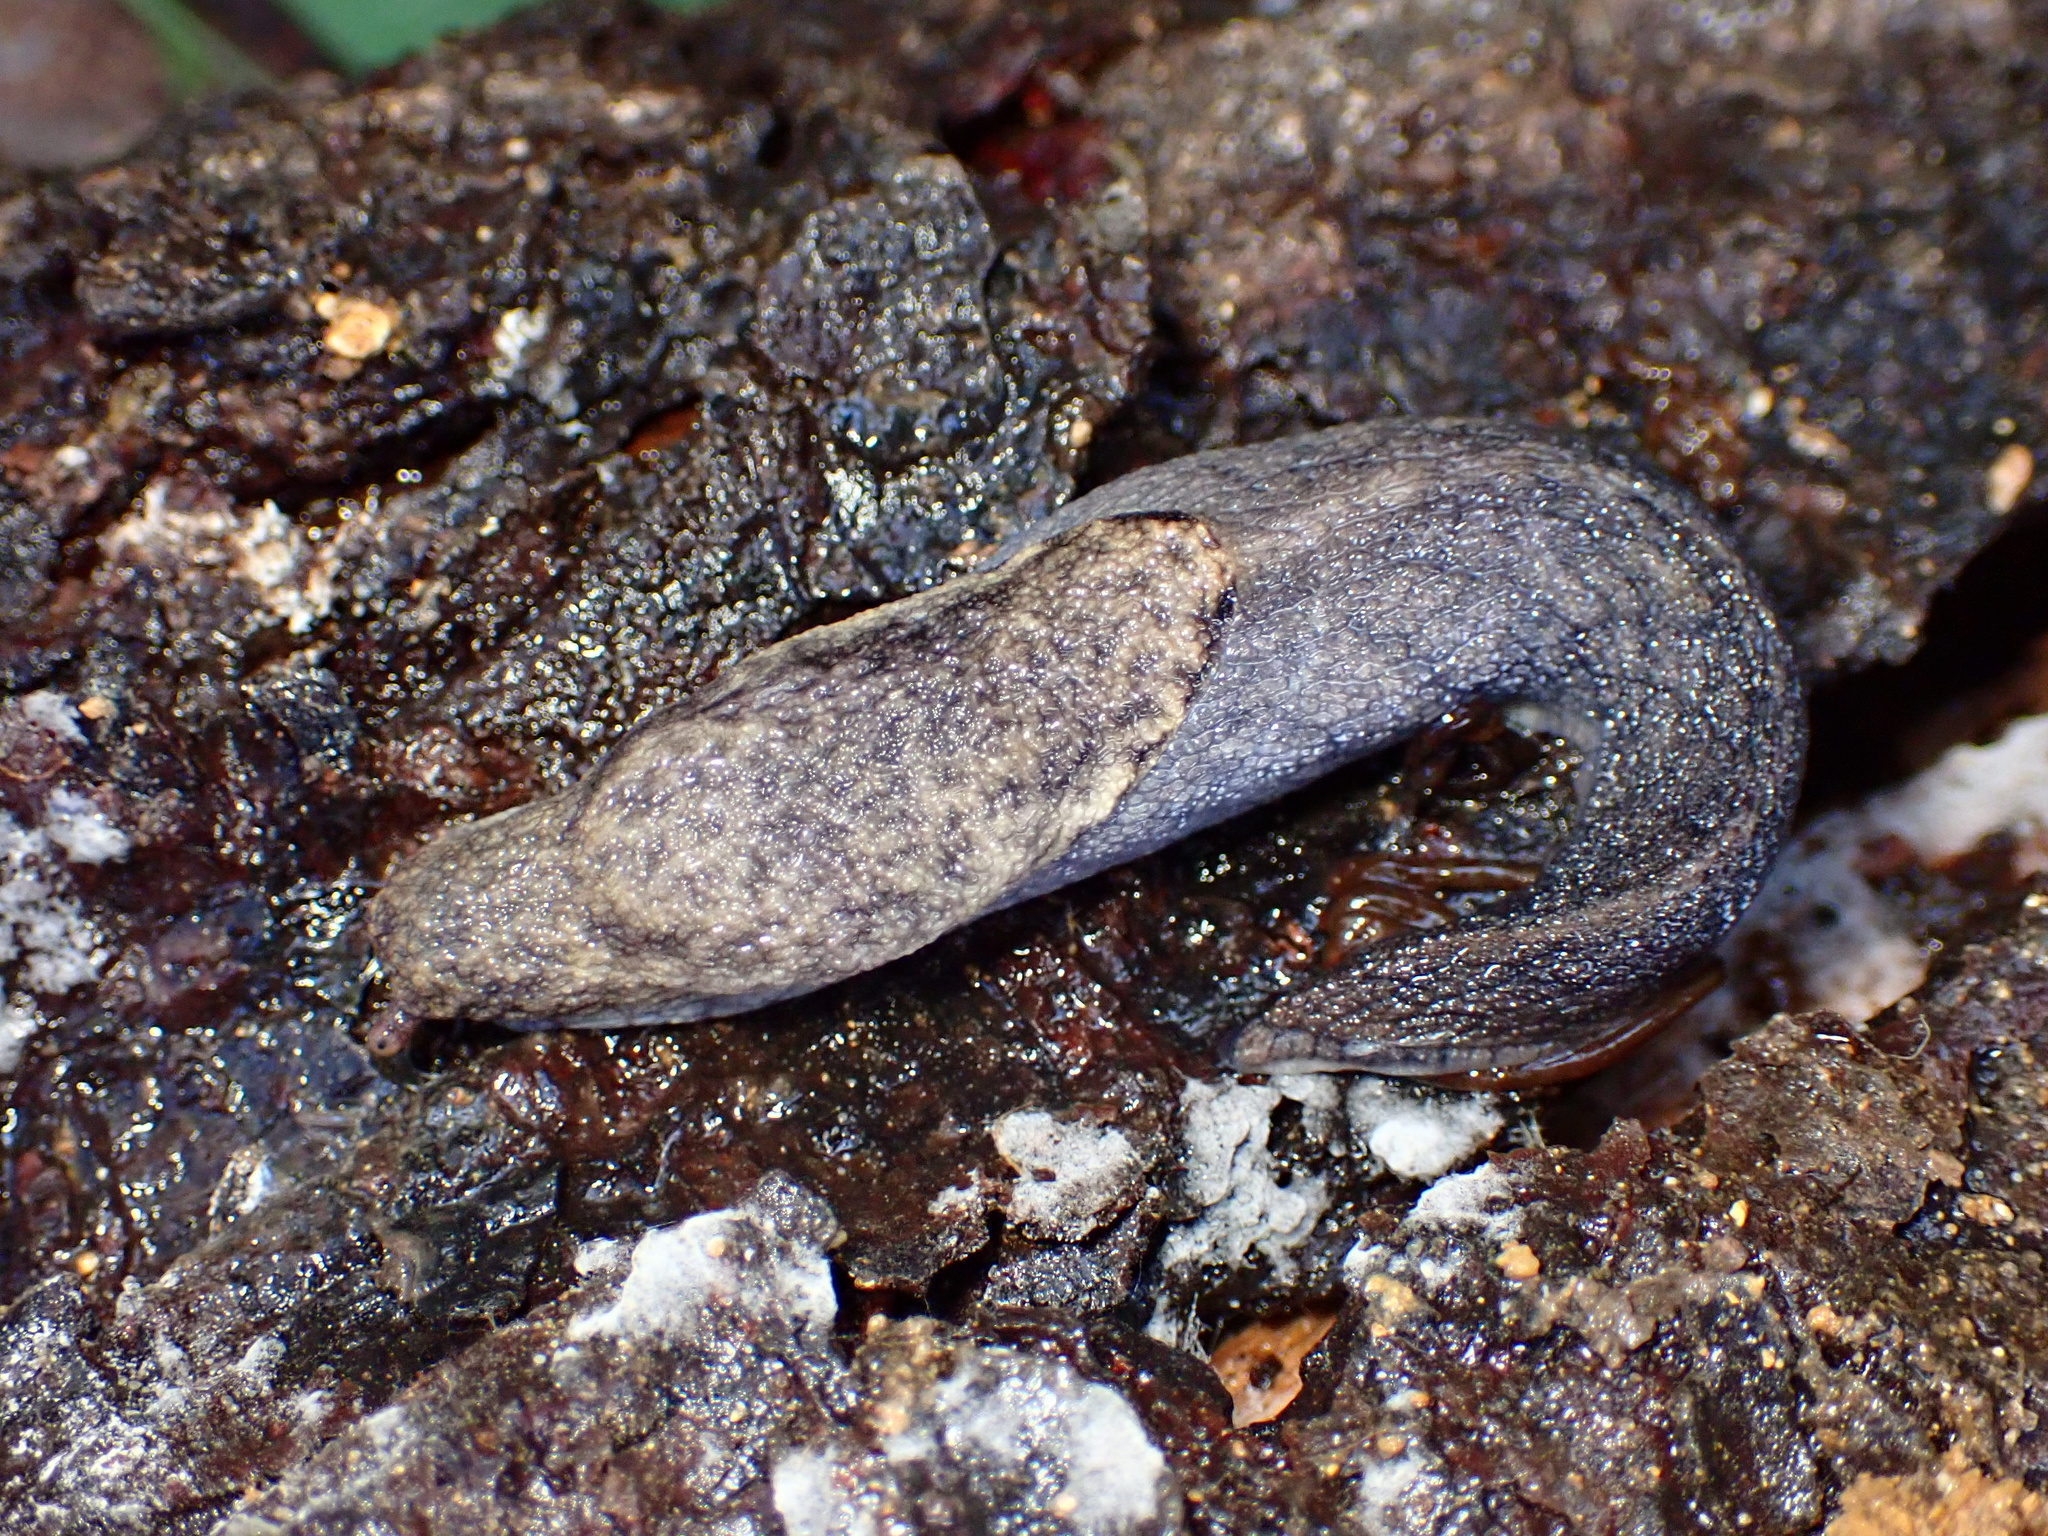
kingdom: Animalia
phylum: Mollusca
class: Gastropoda
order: Stylommatophora
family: Ariolimacidae
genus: Prophysaon
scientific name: Prophysaon andersonii
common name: Reticulate taildropper
